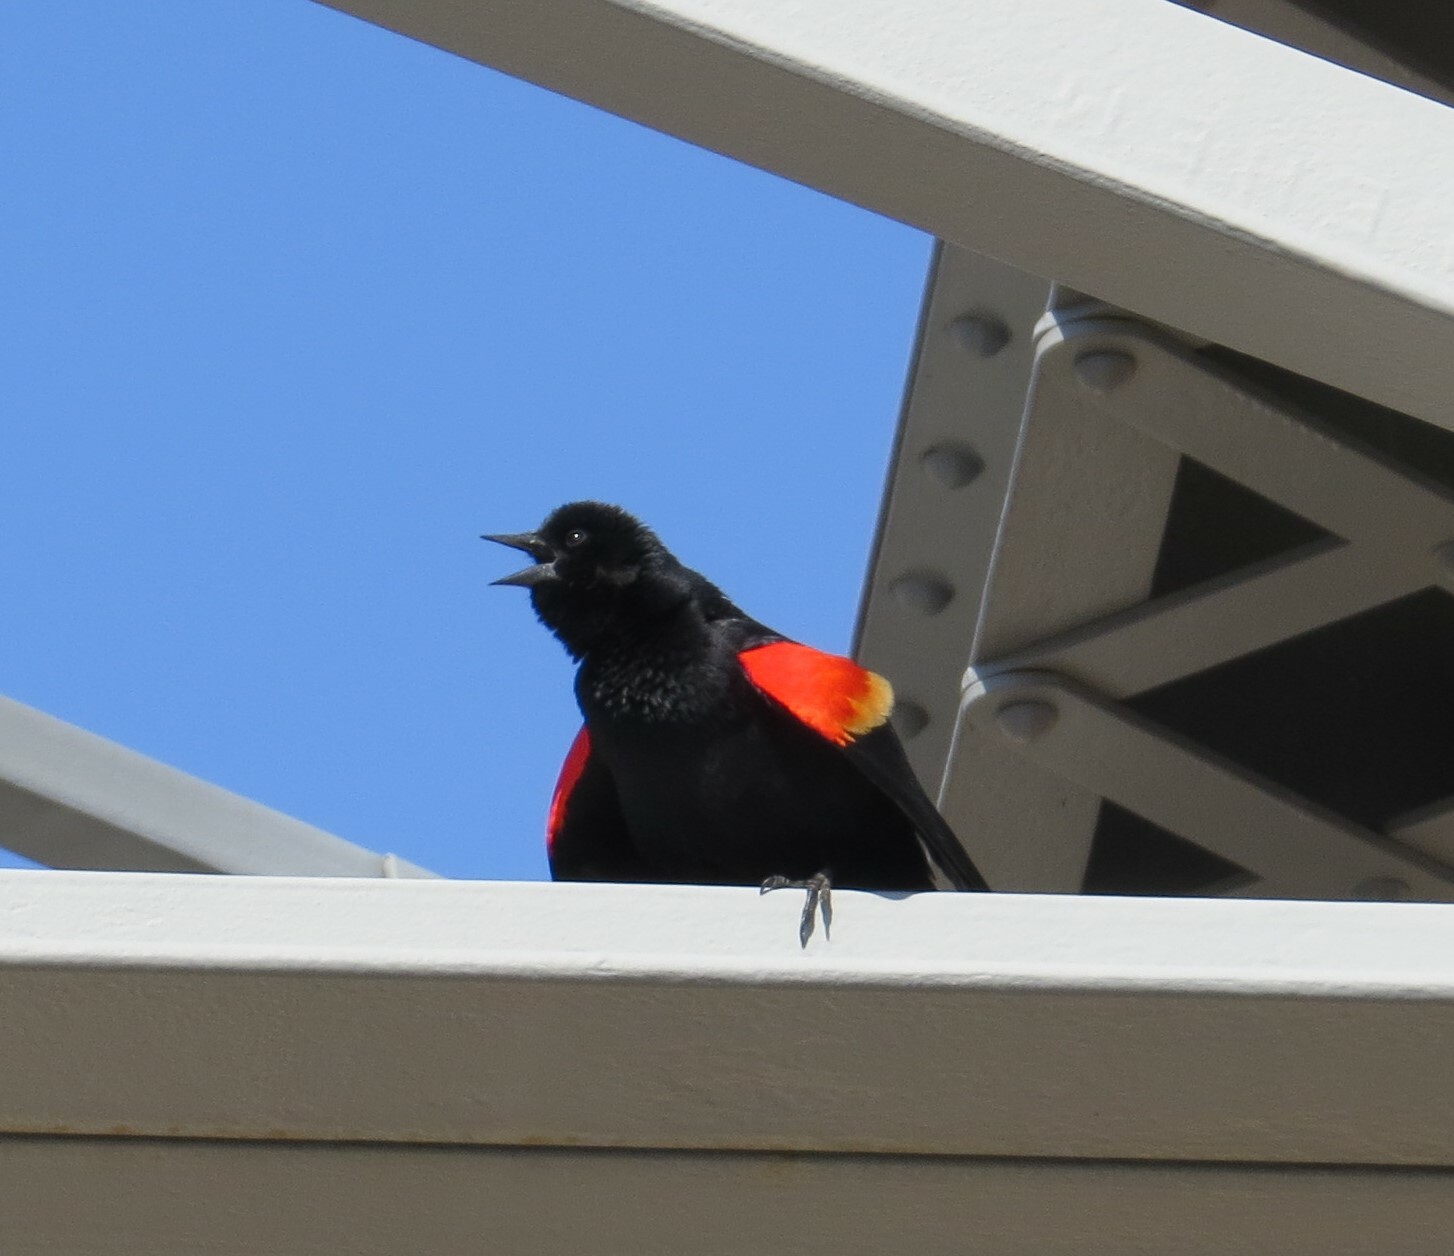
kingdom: Animalia
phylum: Chordata
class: Aves
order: Passeriformes
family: Icteridae
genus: Agelaius
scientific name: Agelaius phoeniceus
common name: Red-winged blackbird
